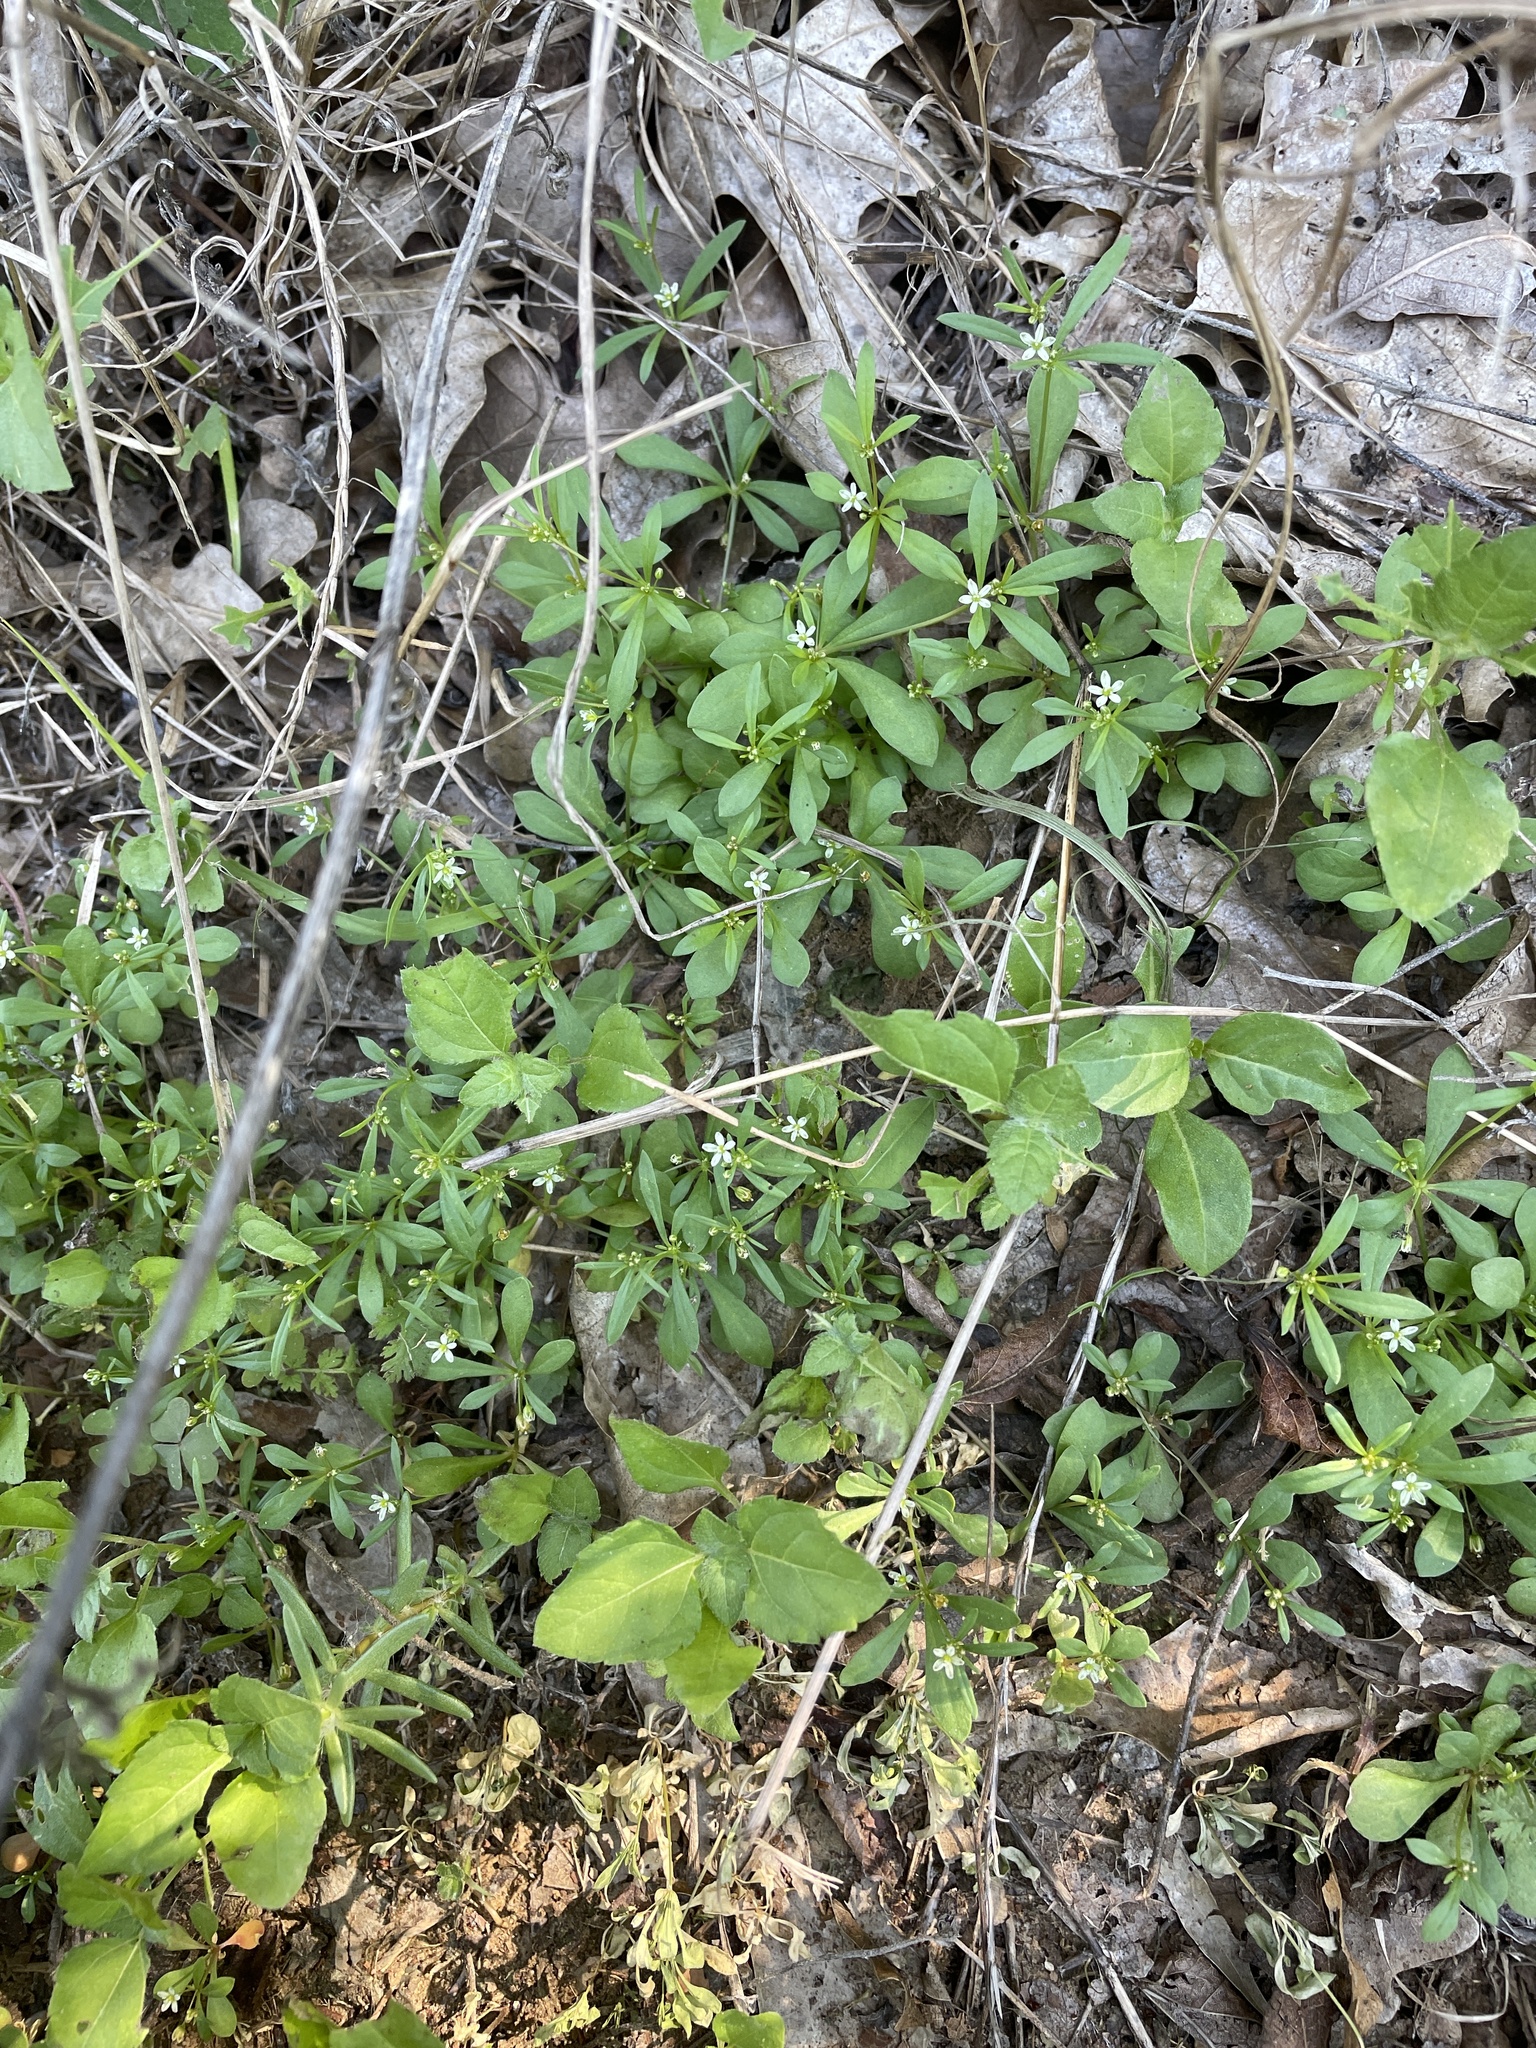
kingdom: Plantae
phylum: Tracheophyta
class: Magnoliopsida
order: Caryophyllales
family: Molluginaceae
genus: Mollugo
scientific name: Mollugo verticillata
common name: Green carpetweed
